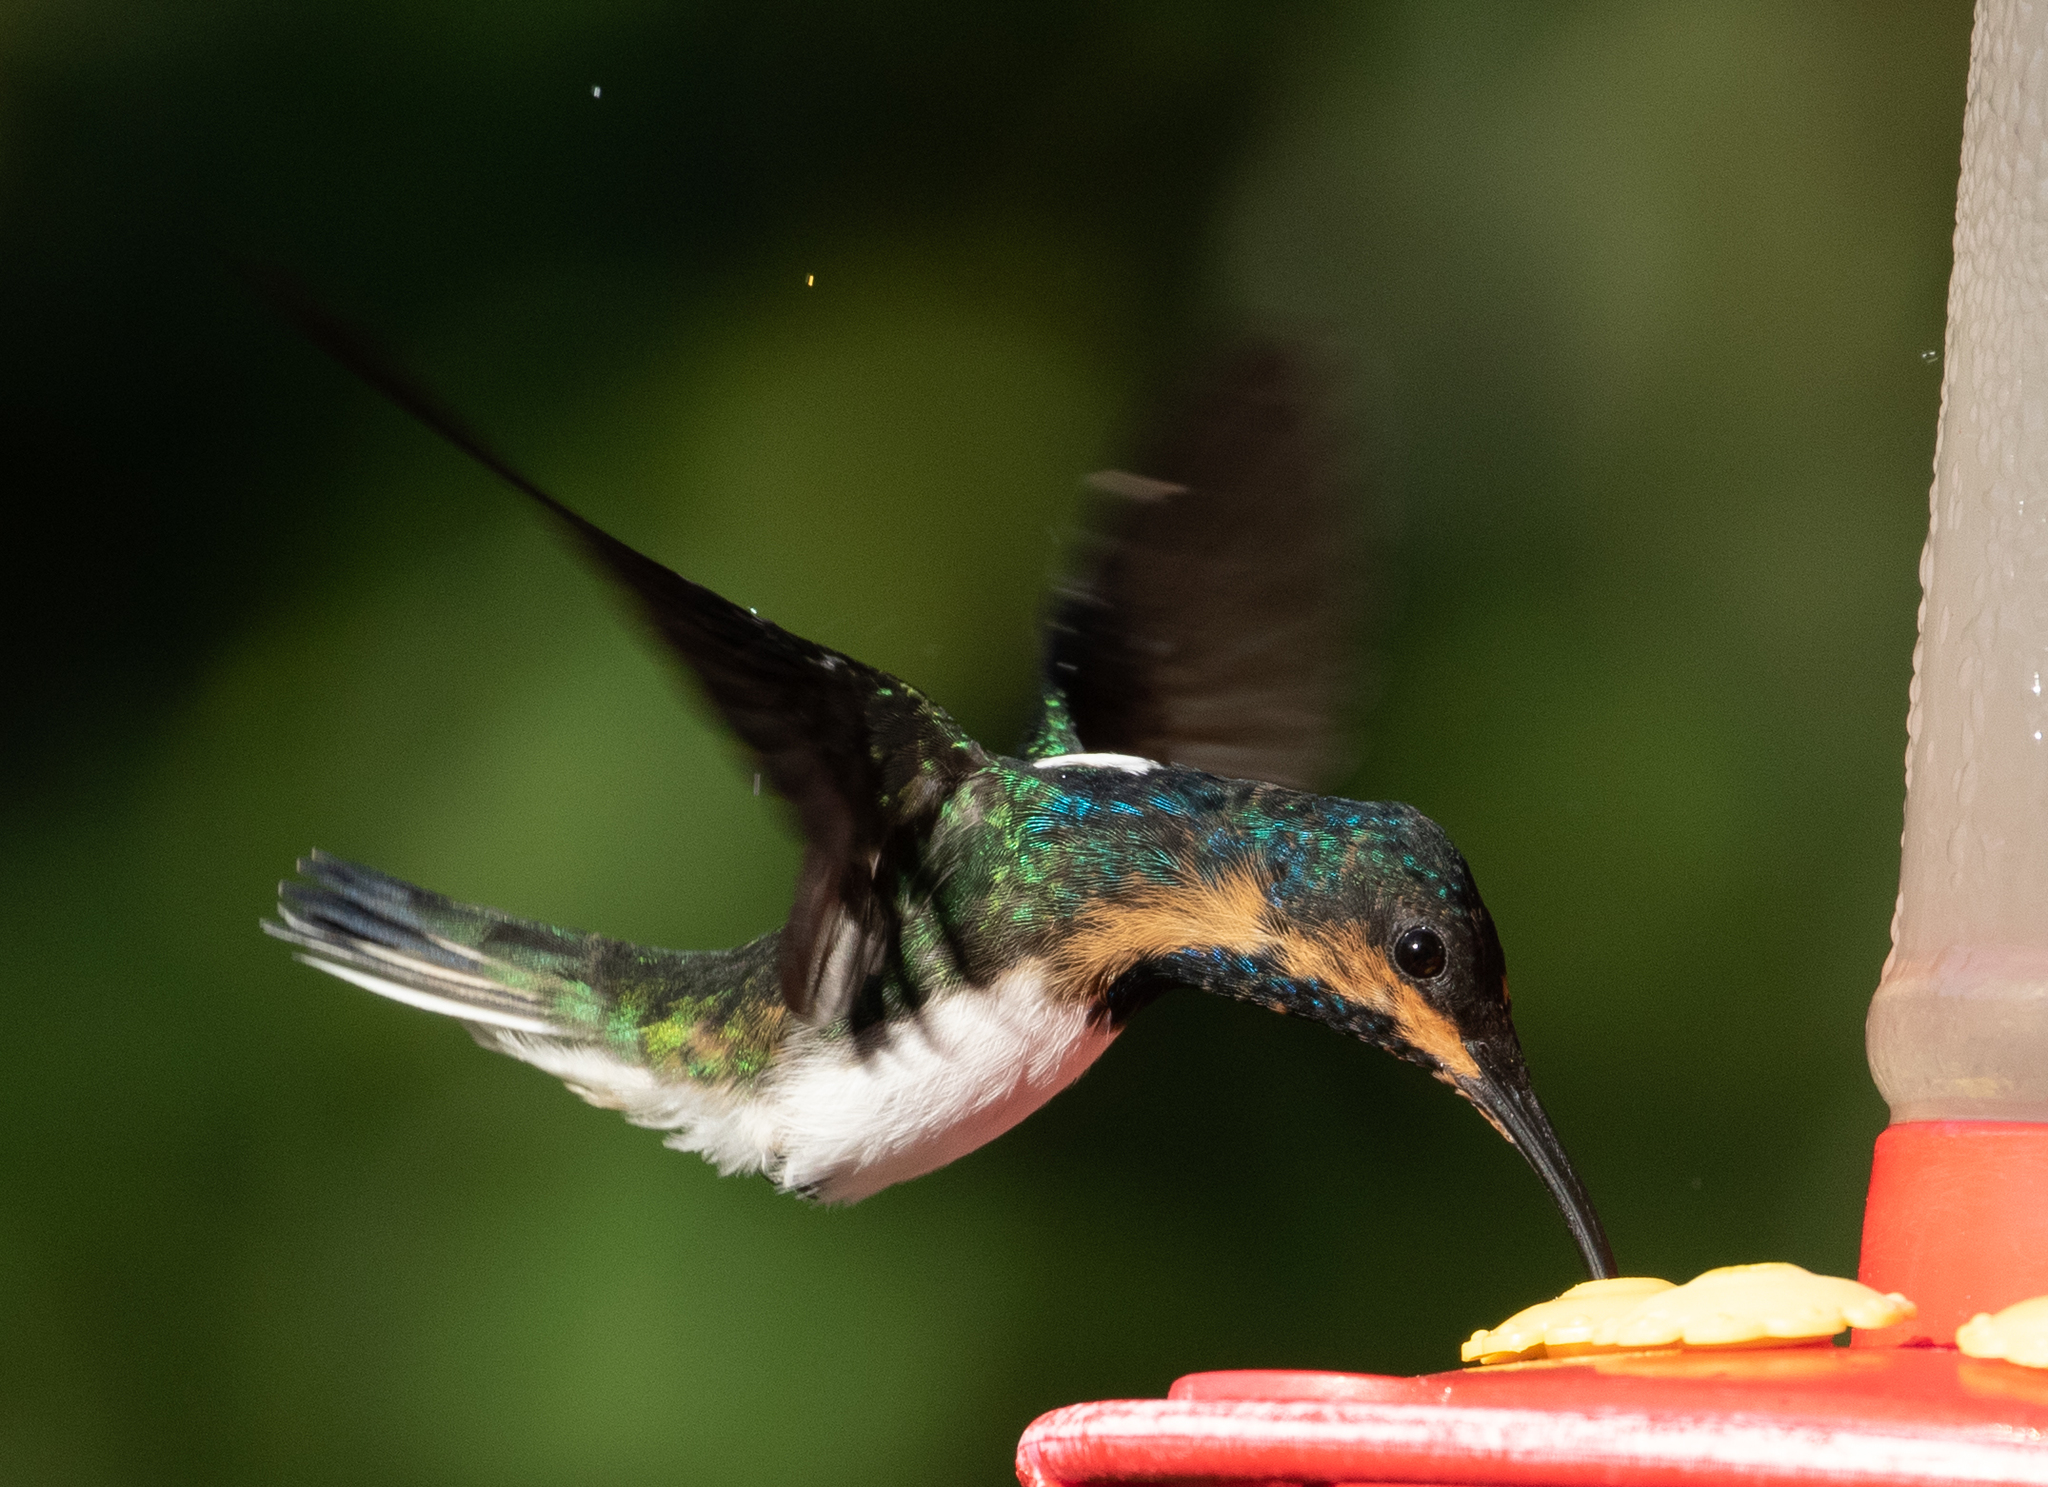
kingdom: Animalia
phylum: Chordata
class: Aves
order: Apodiformes
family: Trochilidae
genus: Florisuga
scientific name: Florisuga mellivora
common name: White-necked jacobin
